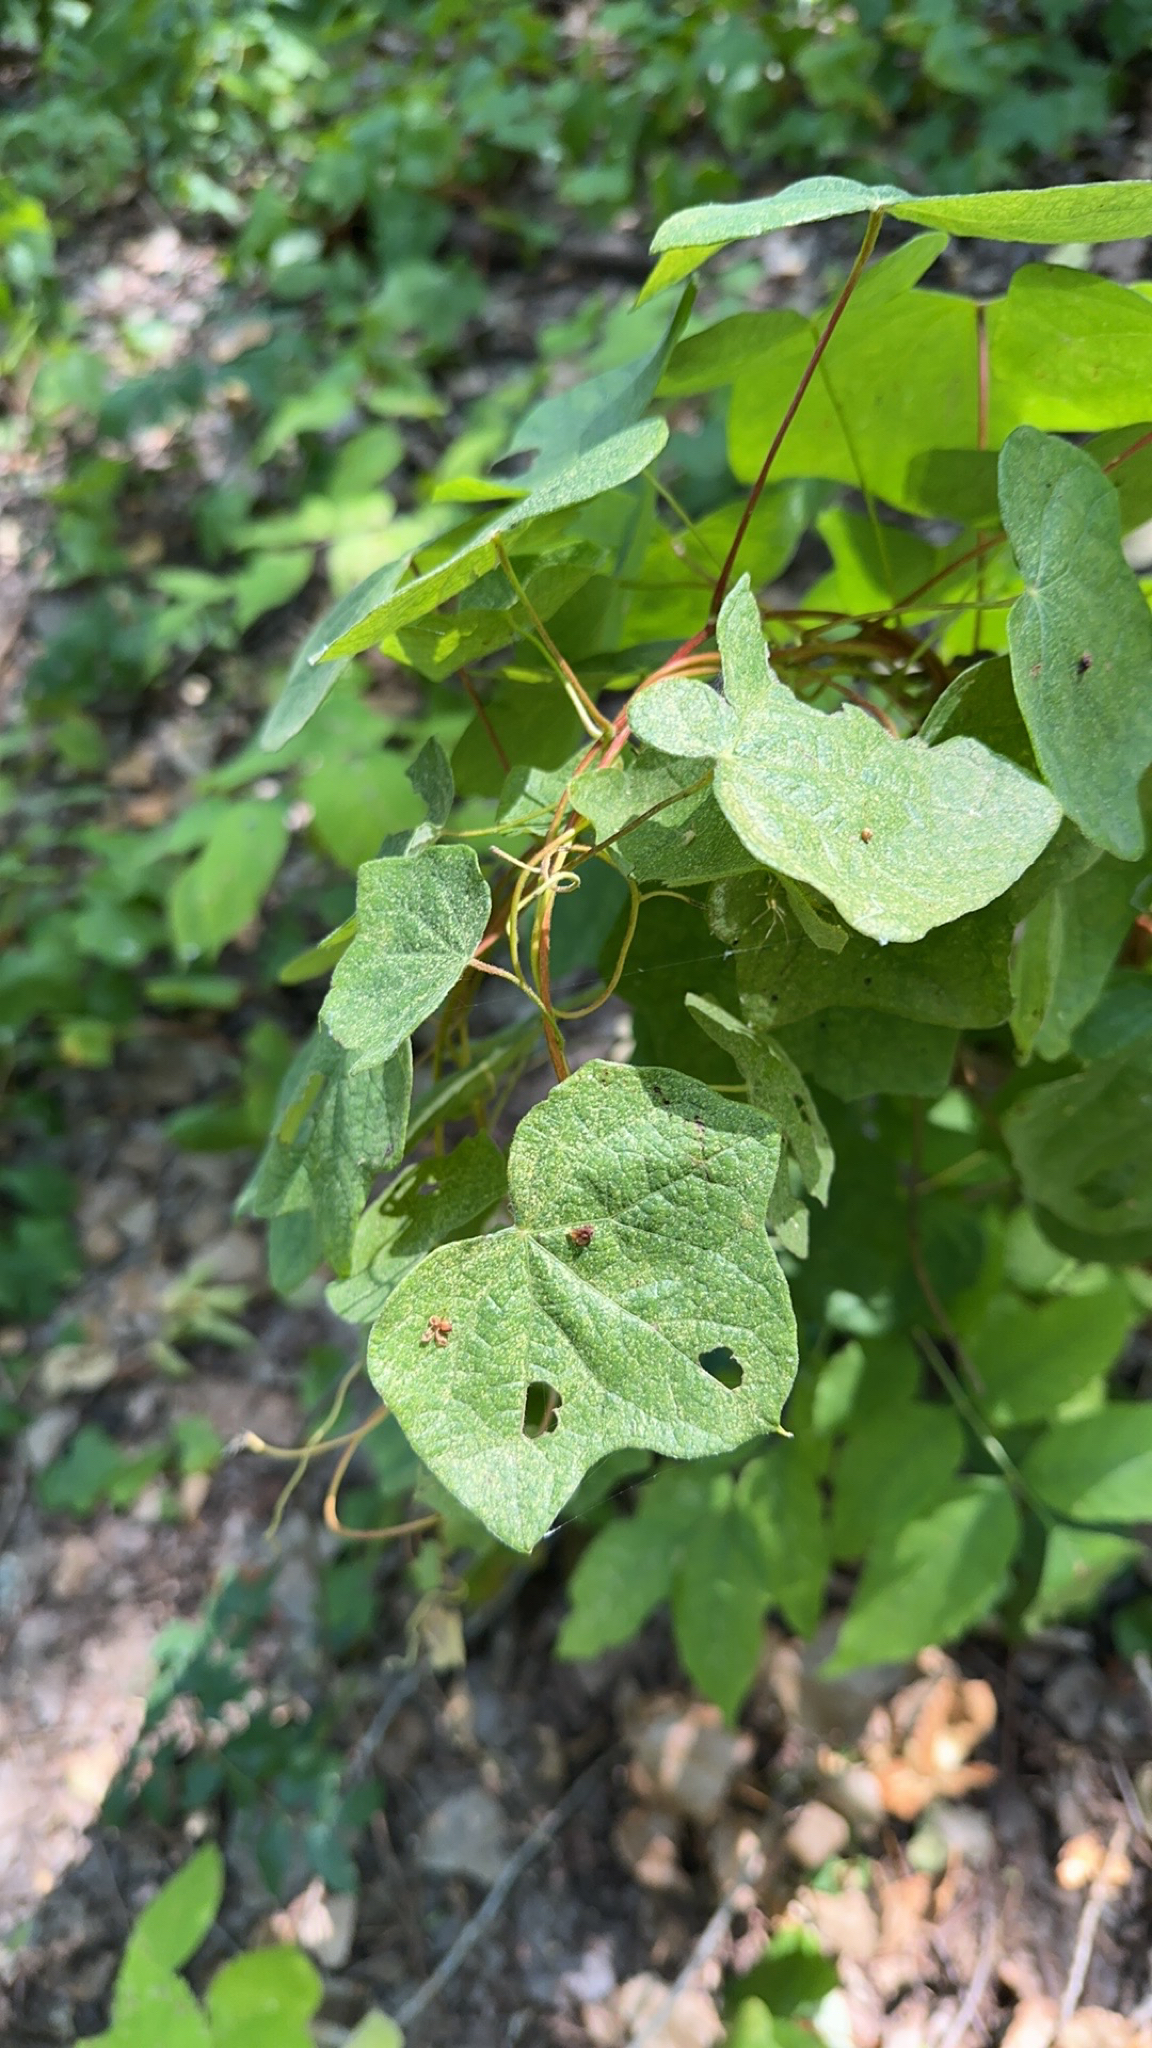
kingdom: Plantae
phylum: Tracheophyta
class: Magnoliopsida
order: Ranunculales
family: Menispermaceae
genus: Menispermum
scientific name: Menispermum canadense
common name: Moonseed
